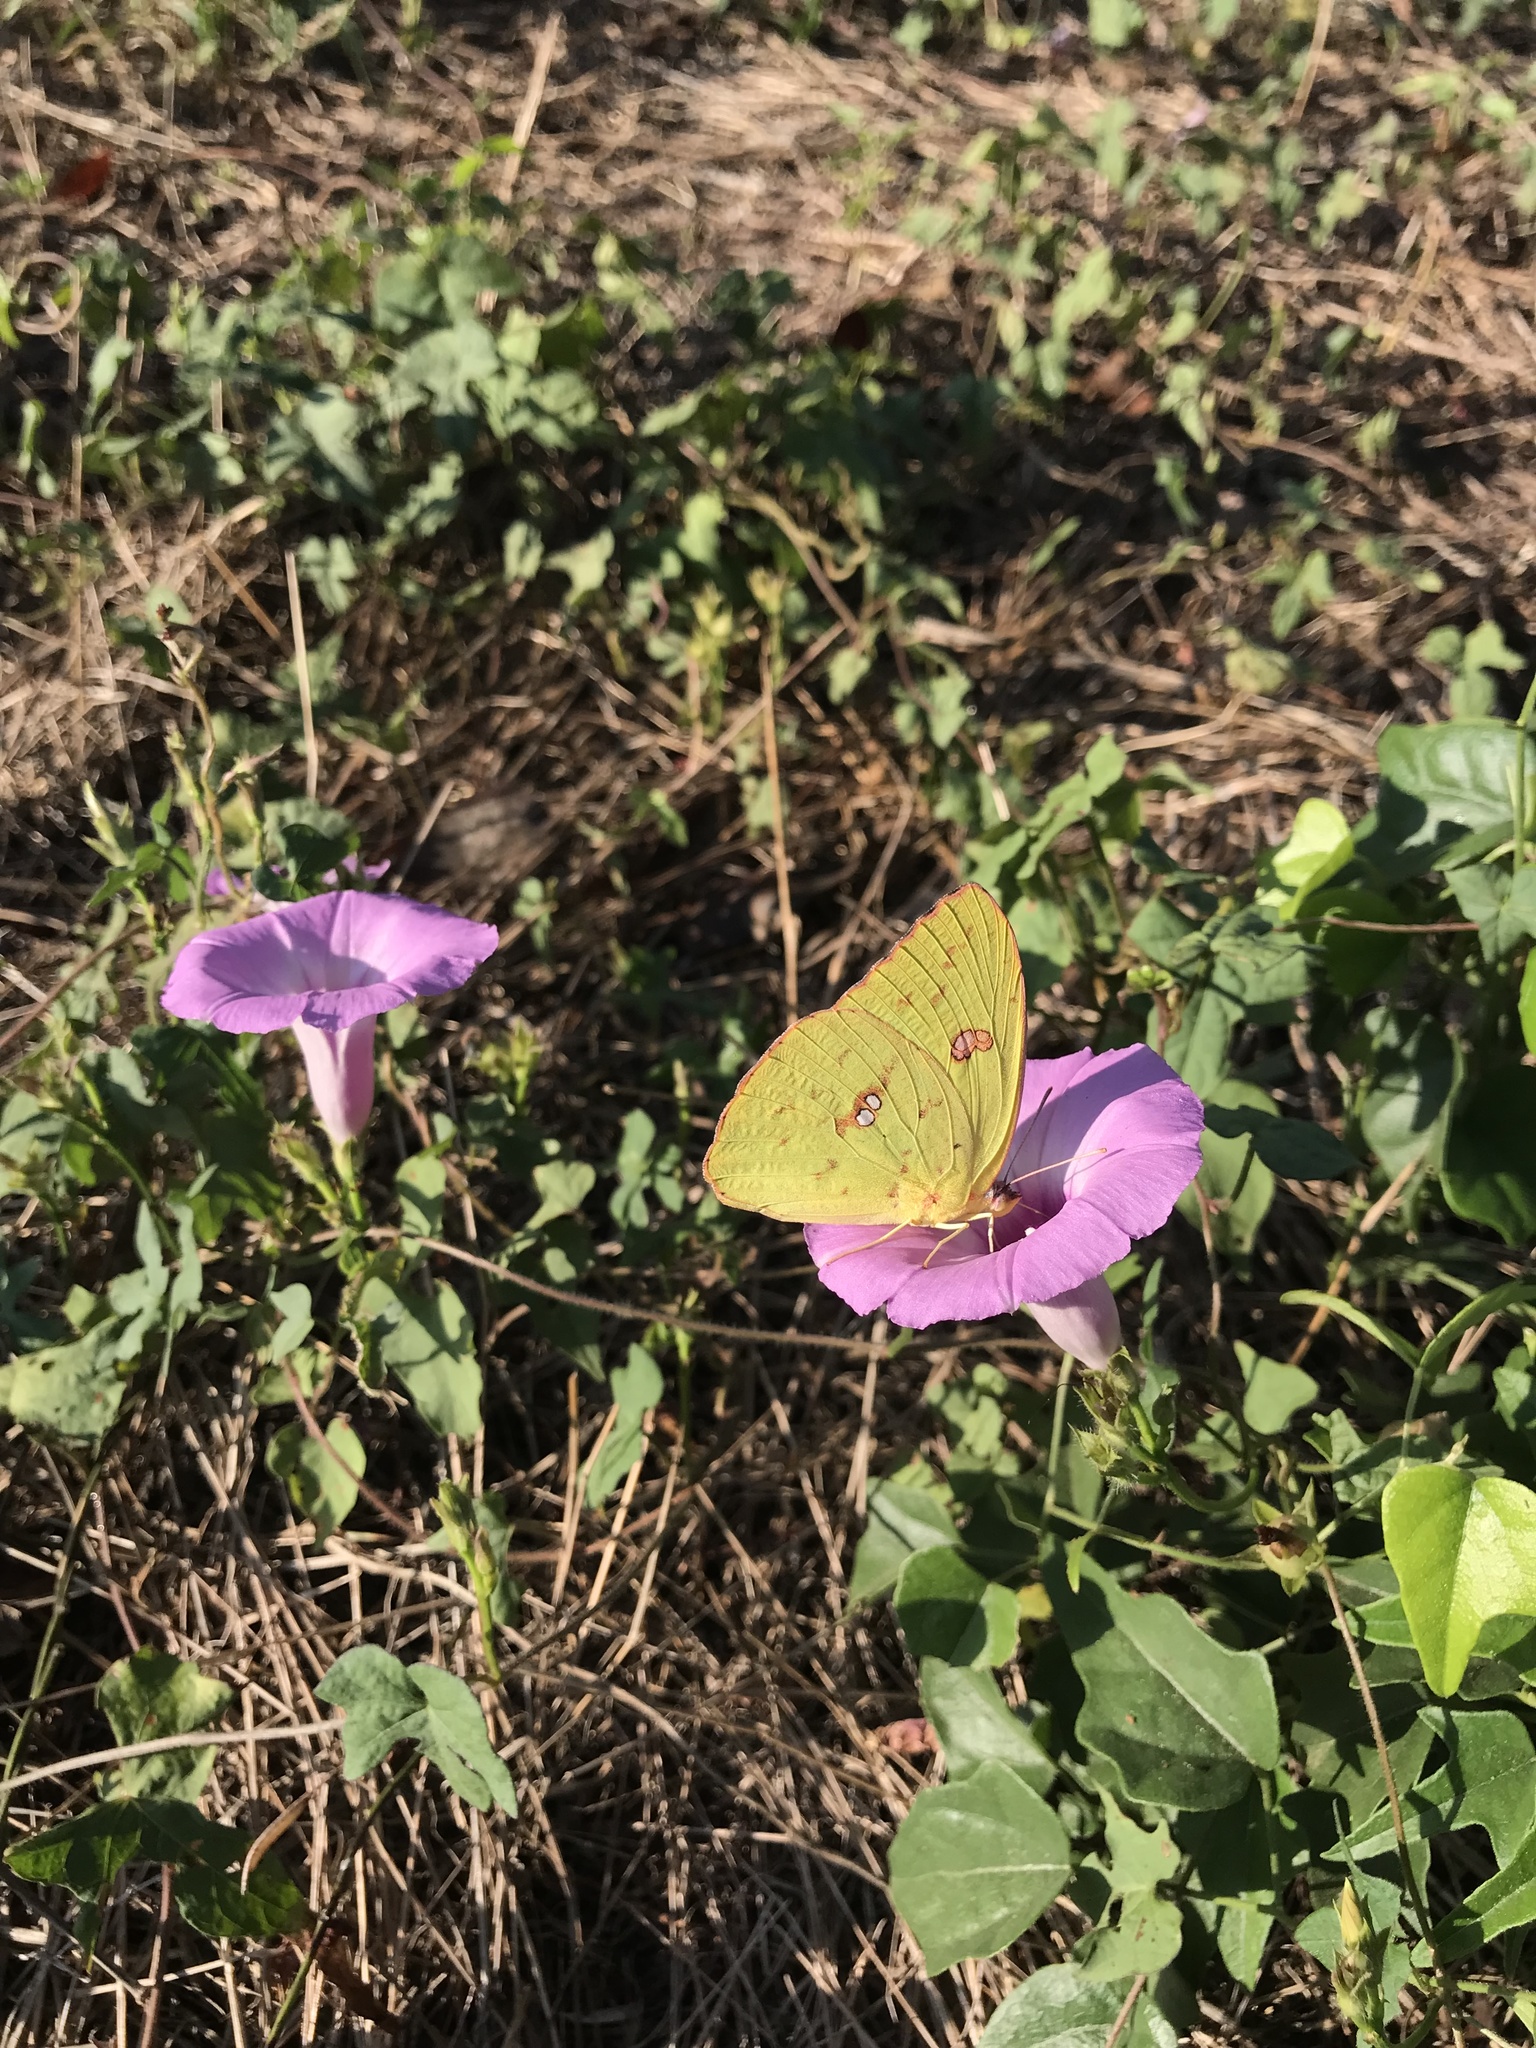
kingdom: Animalia
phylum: Arthropoda
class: Insecta
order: Lepidoptera
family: Pieridae
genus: Phoebis
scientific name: Phoebis sennae
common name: Cloudless sulphur
